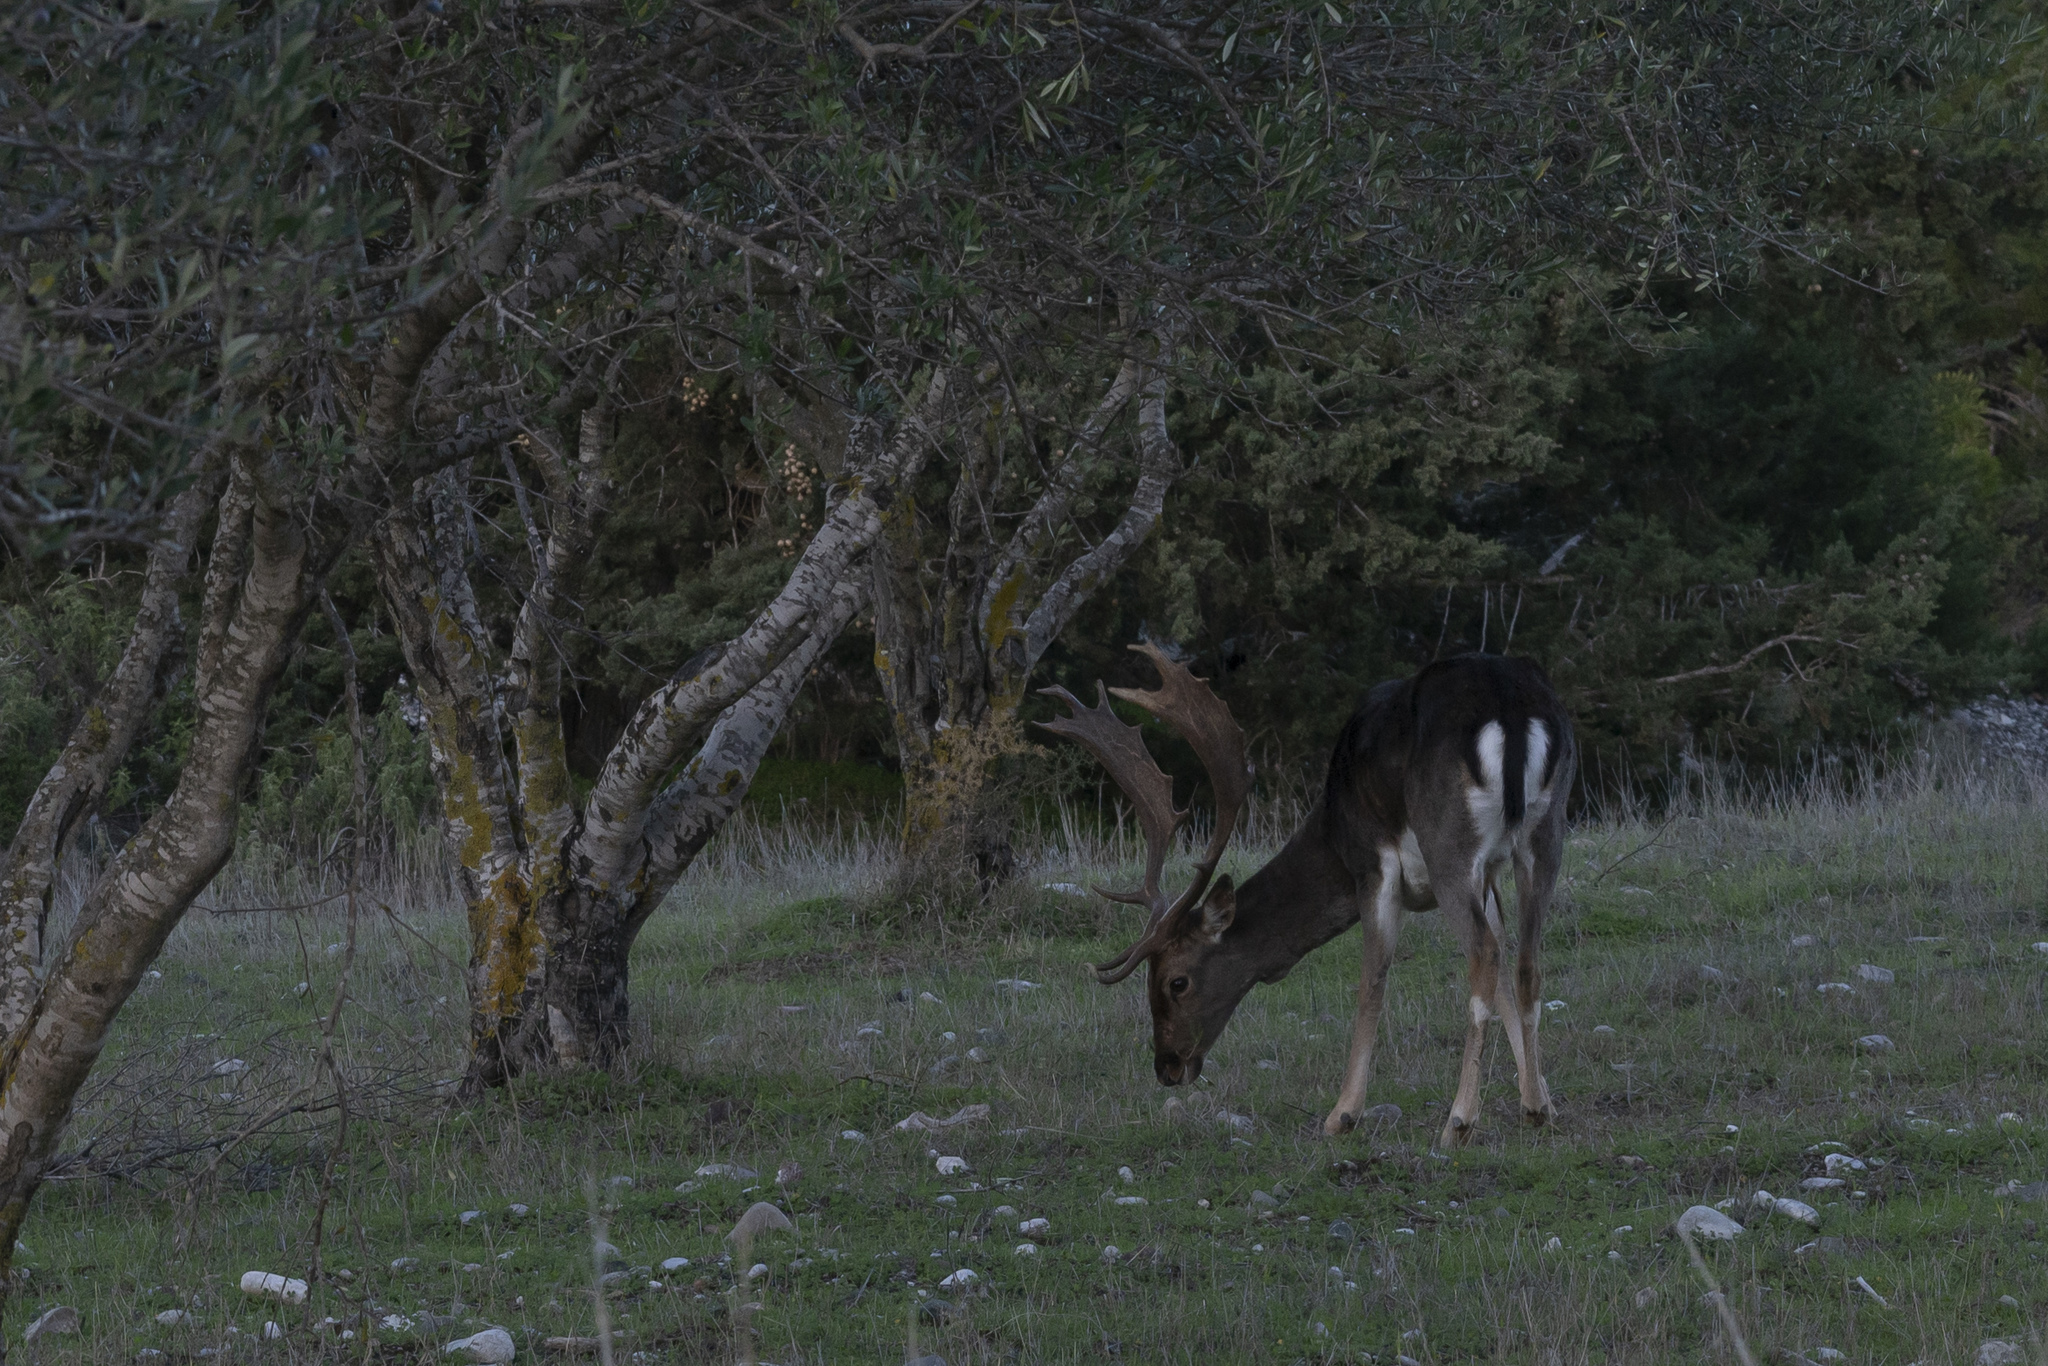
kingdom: Animalia
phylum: Chordata
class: Mammalia
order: Artiodactyla
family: Cervidae
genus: Dama
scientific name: Dama dama
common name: Fallow deer
